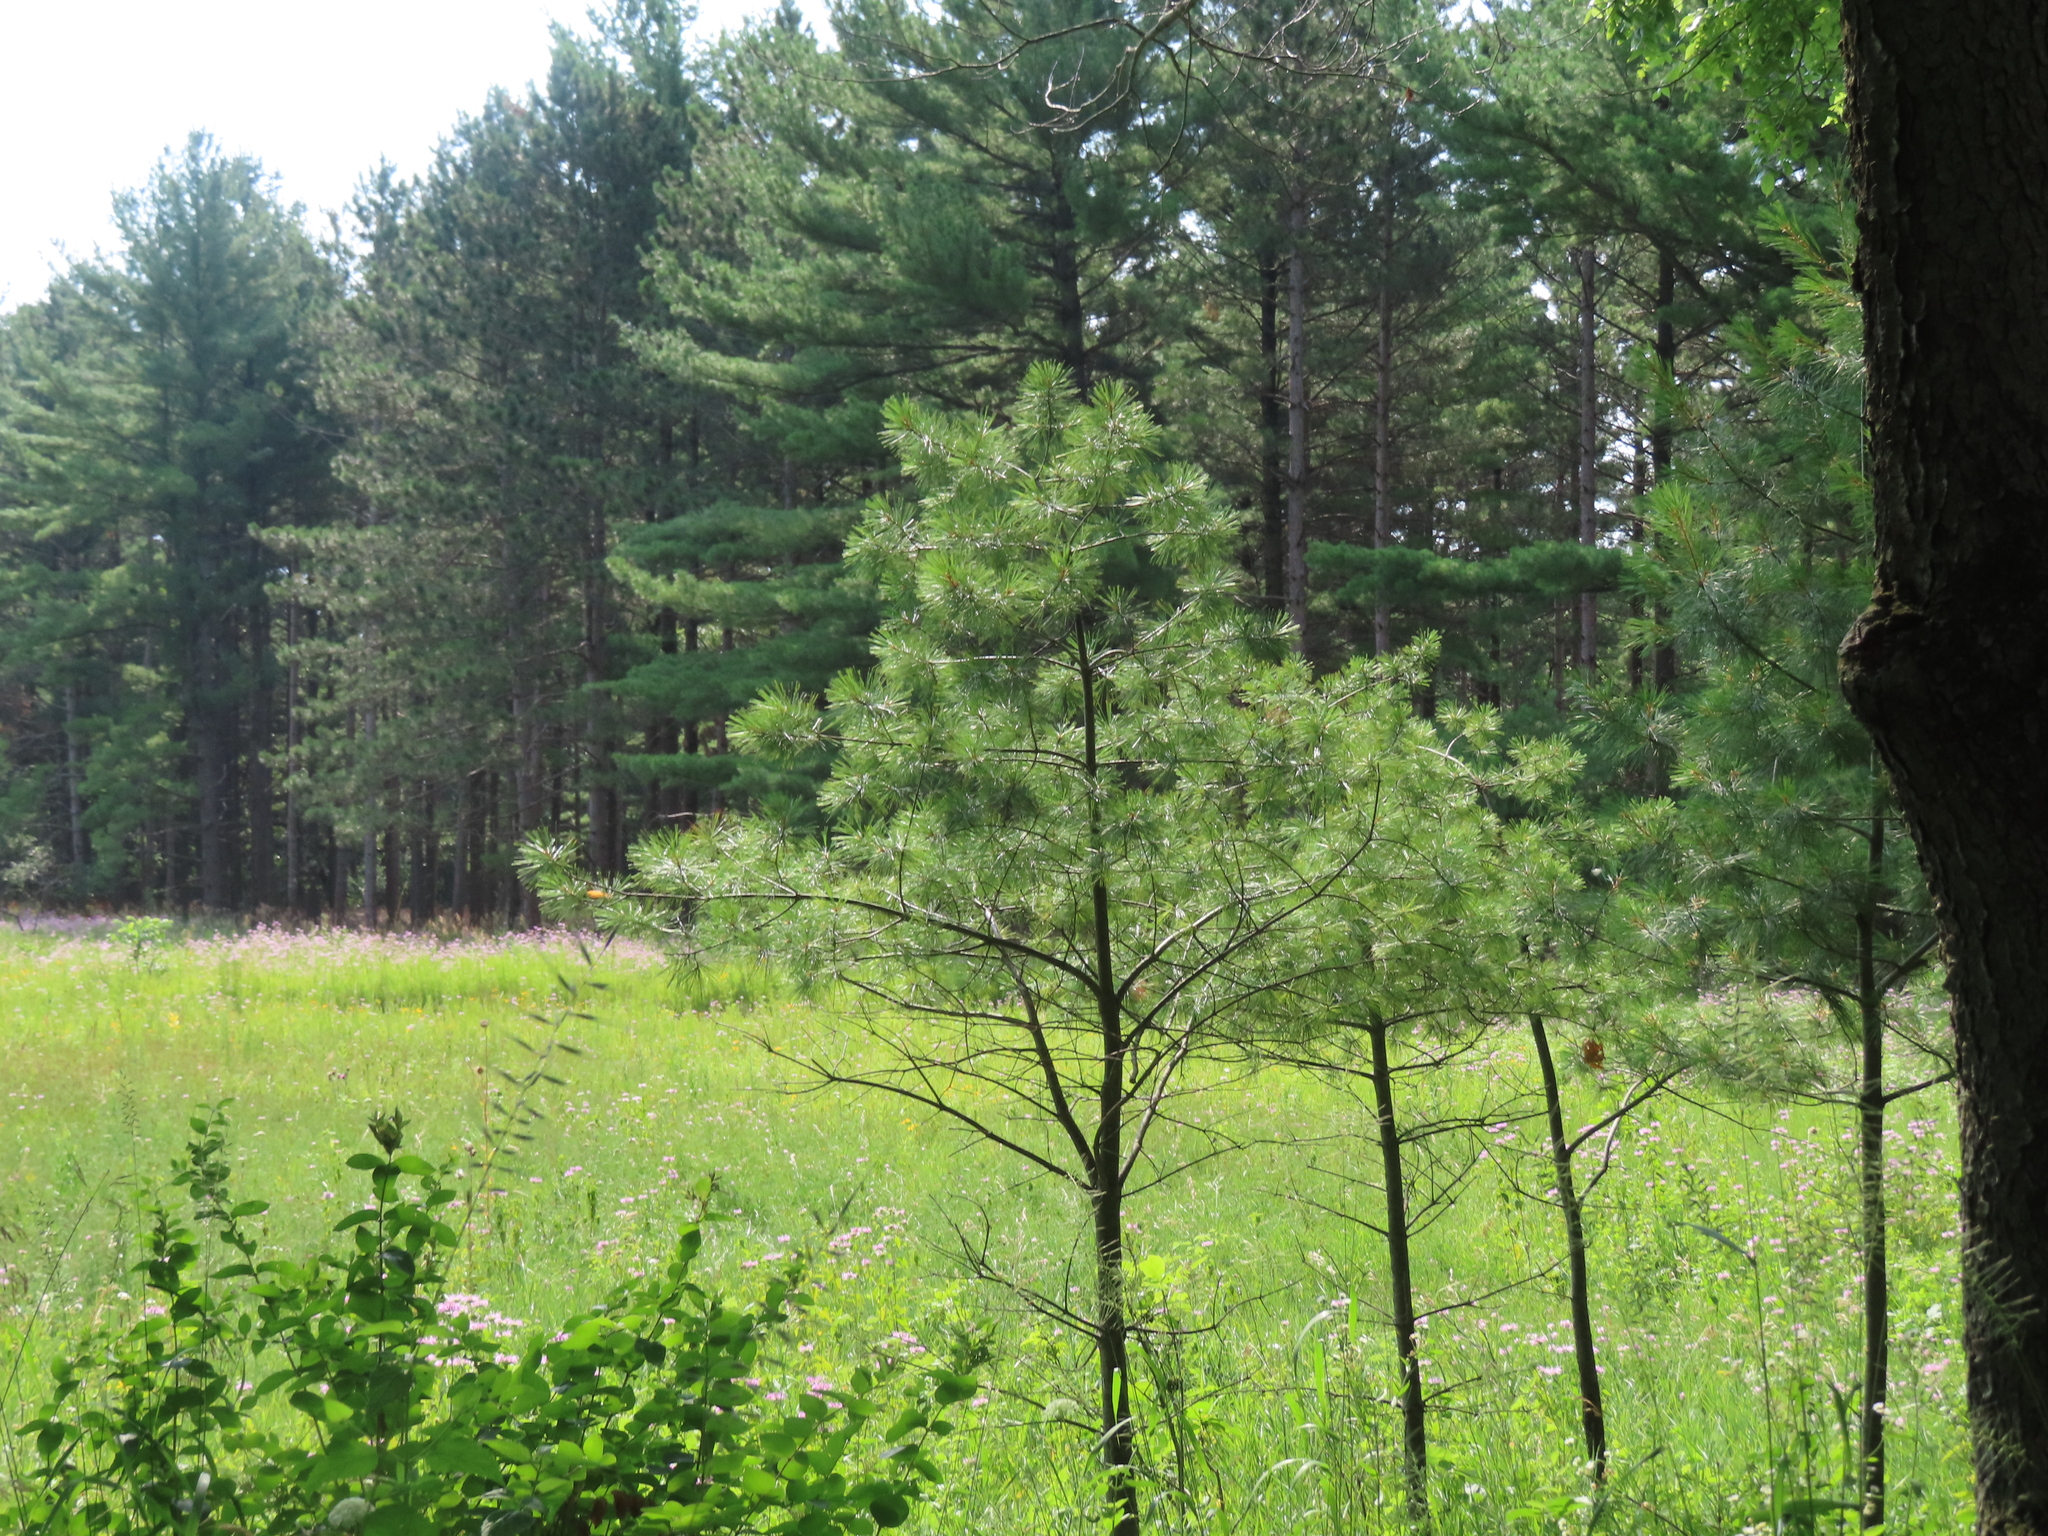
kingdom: Plantae
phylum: Tracheophyta
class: Pinopsida
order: Pinales
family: Pinaceae
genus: Pinus
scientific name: Pinus strobus
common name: Weymouth pine
